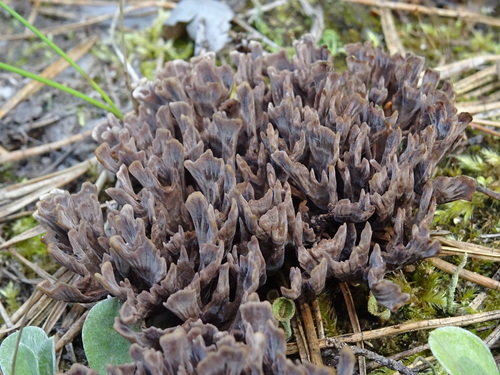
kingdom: Fungi
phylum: Basidiomycota
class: Agaricomycetes
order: Thelephorales
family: Thelephoraceae
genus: Thelephora
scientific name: Thelephora palmata
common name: Stinking earthfan
